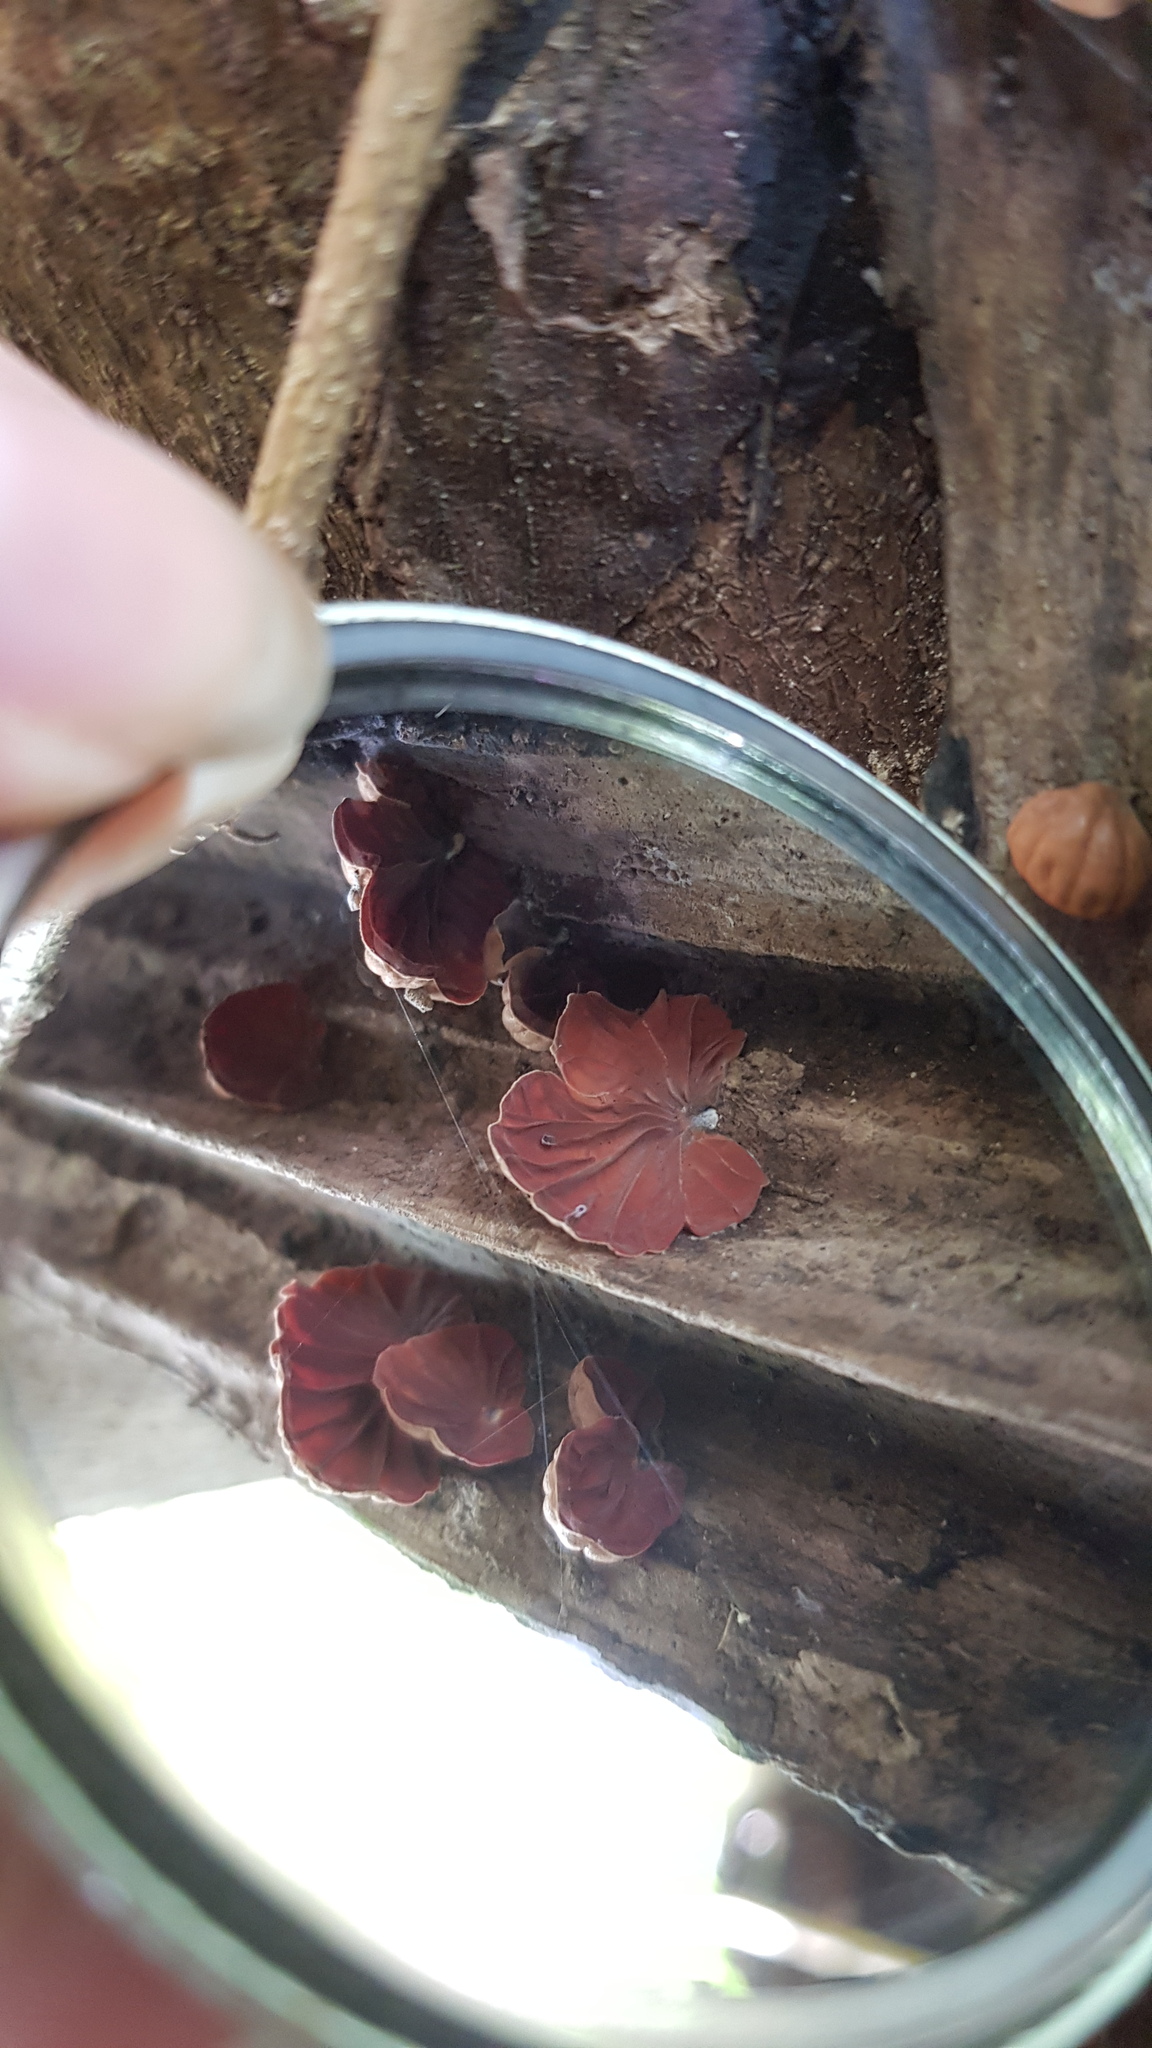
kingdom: Fungi
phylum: Basidiomycota
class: Agaricomycetes
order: Agaricales
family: Omphalotaceae
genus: Anthracophyllum
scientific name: Anthracophyllum archeri
